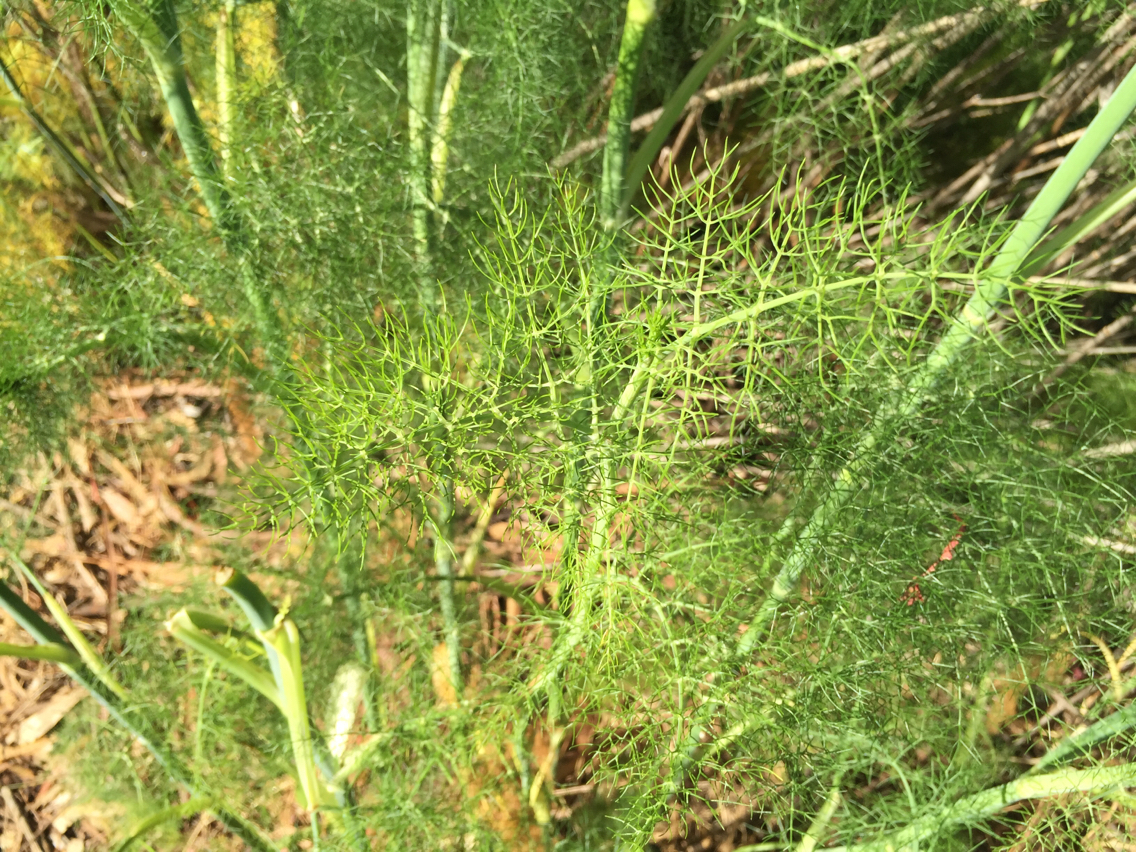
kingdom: Plantae
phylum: Tracheophyta
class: Magnoliopsida
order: Apiales
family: Apiaceae
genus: Foeniculum
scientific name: Foeniculum vulgare
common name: Fennel
